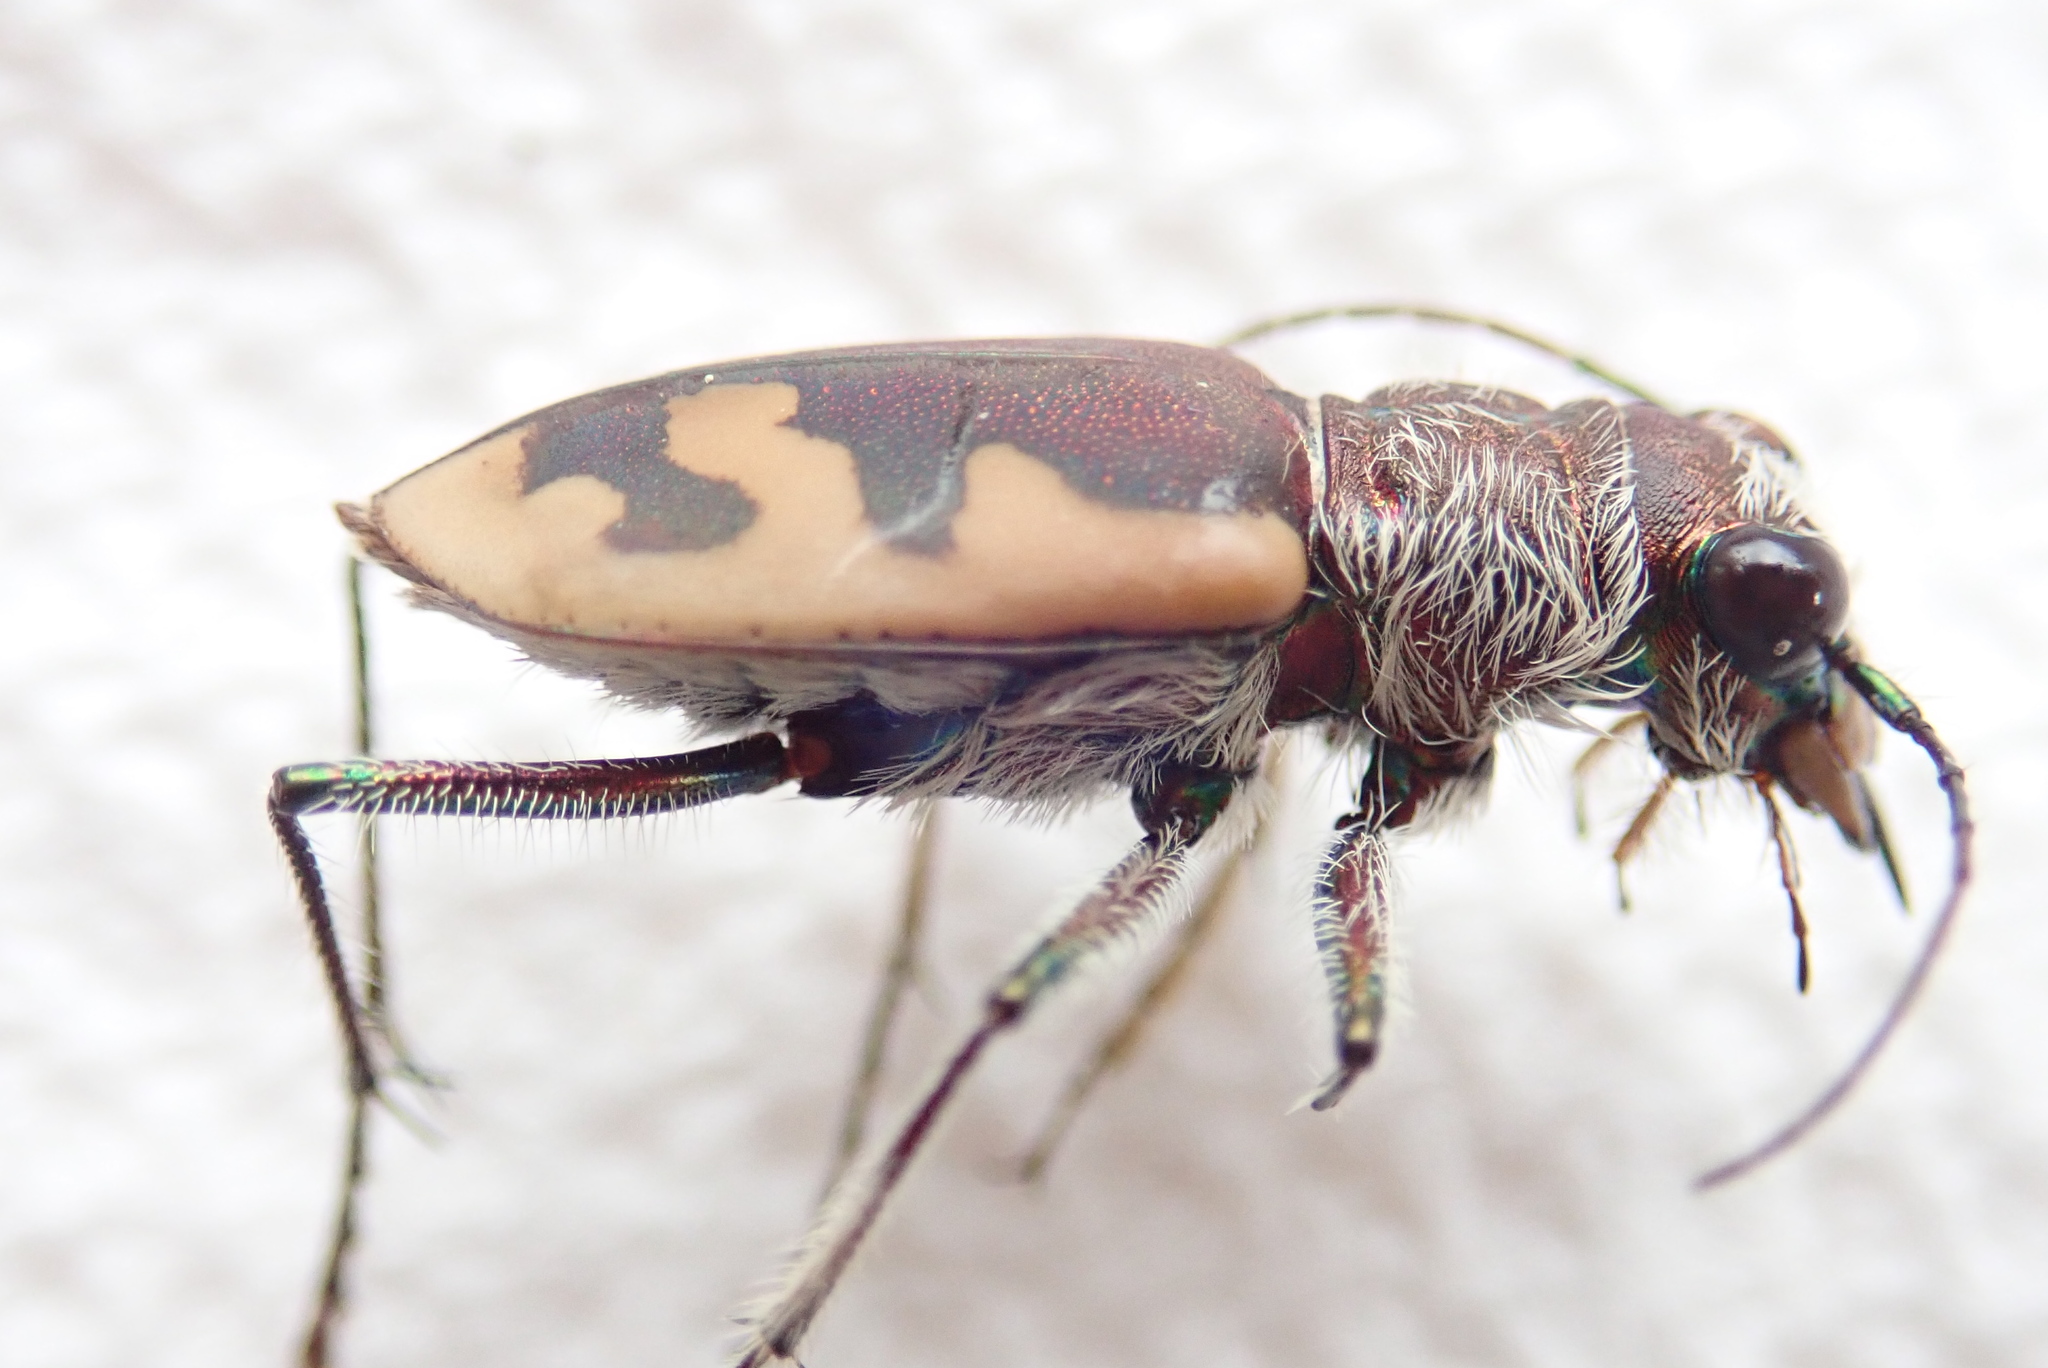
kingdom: Animalia
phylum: Arthropoda
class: Insecta
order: Coleoptera
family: Carabidae
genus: Cicindela
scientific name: Cicindela formosa
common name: Big sand tiger beetle
